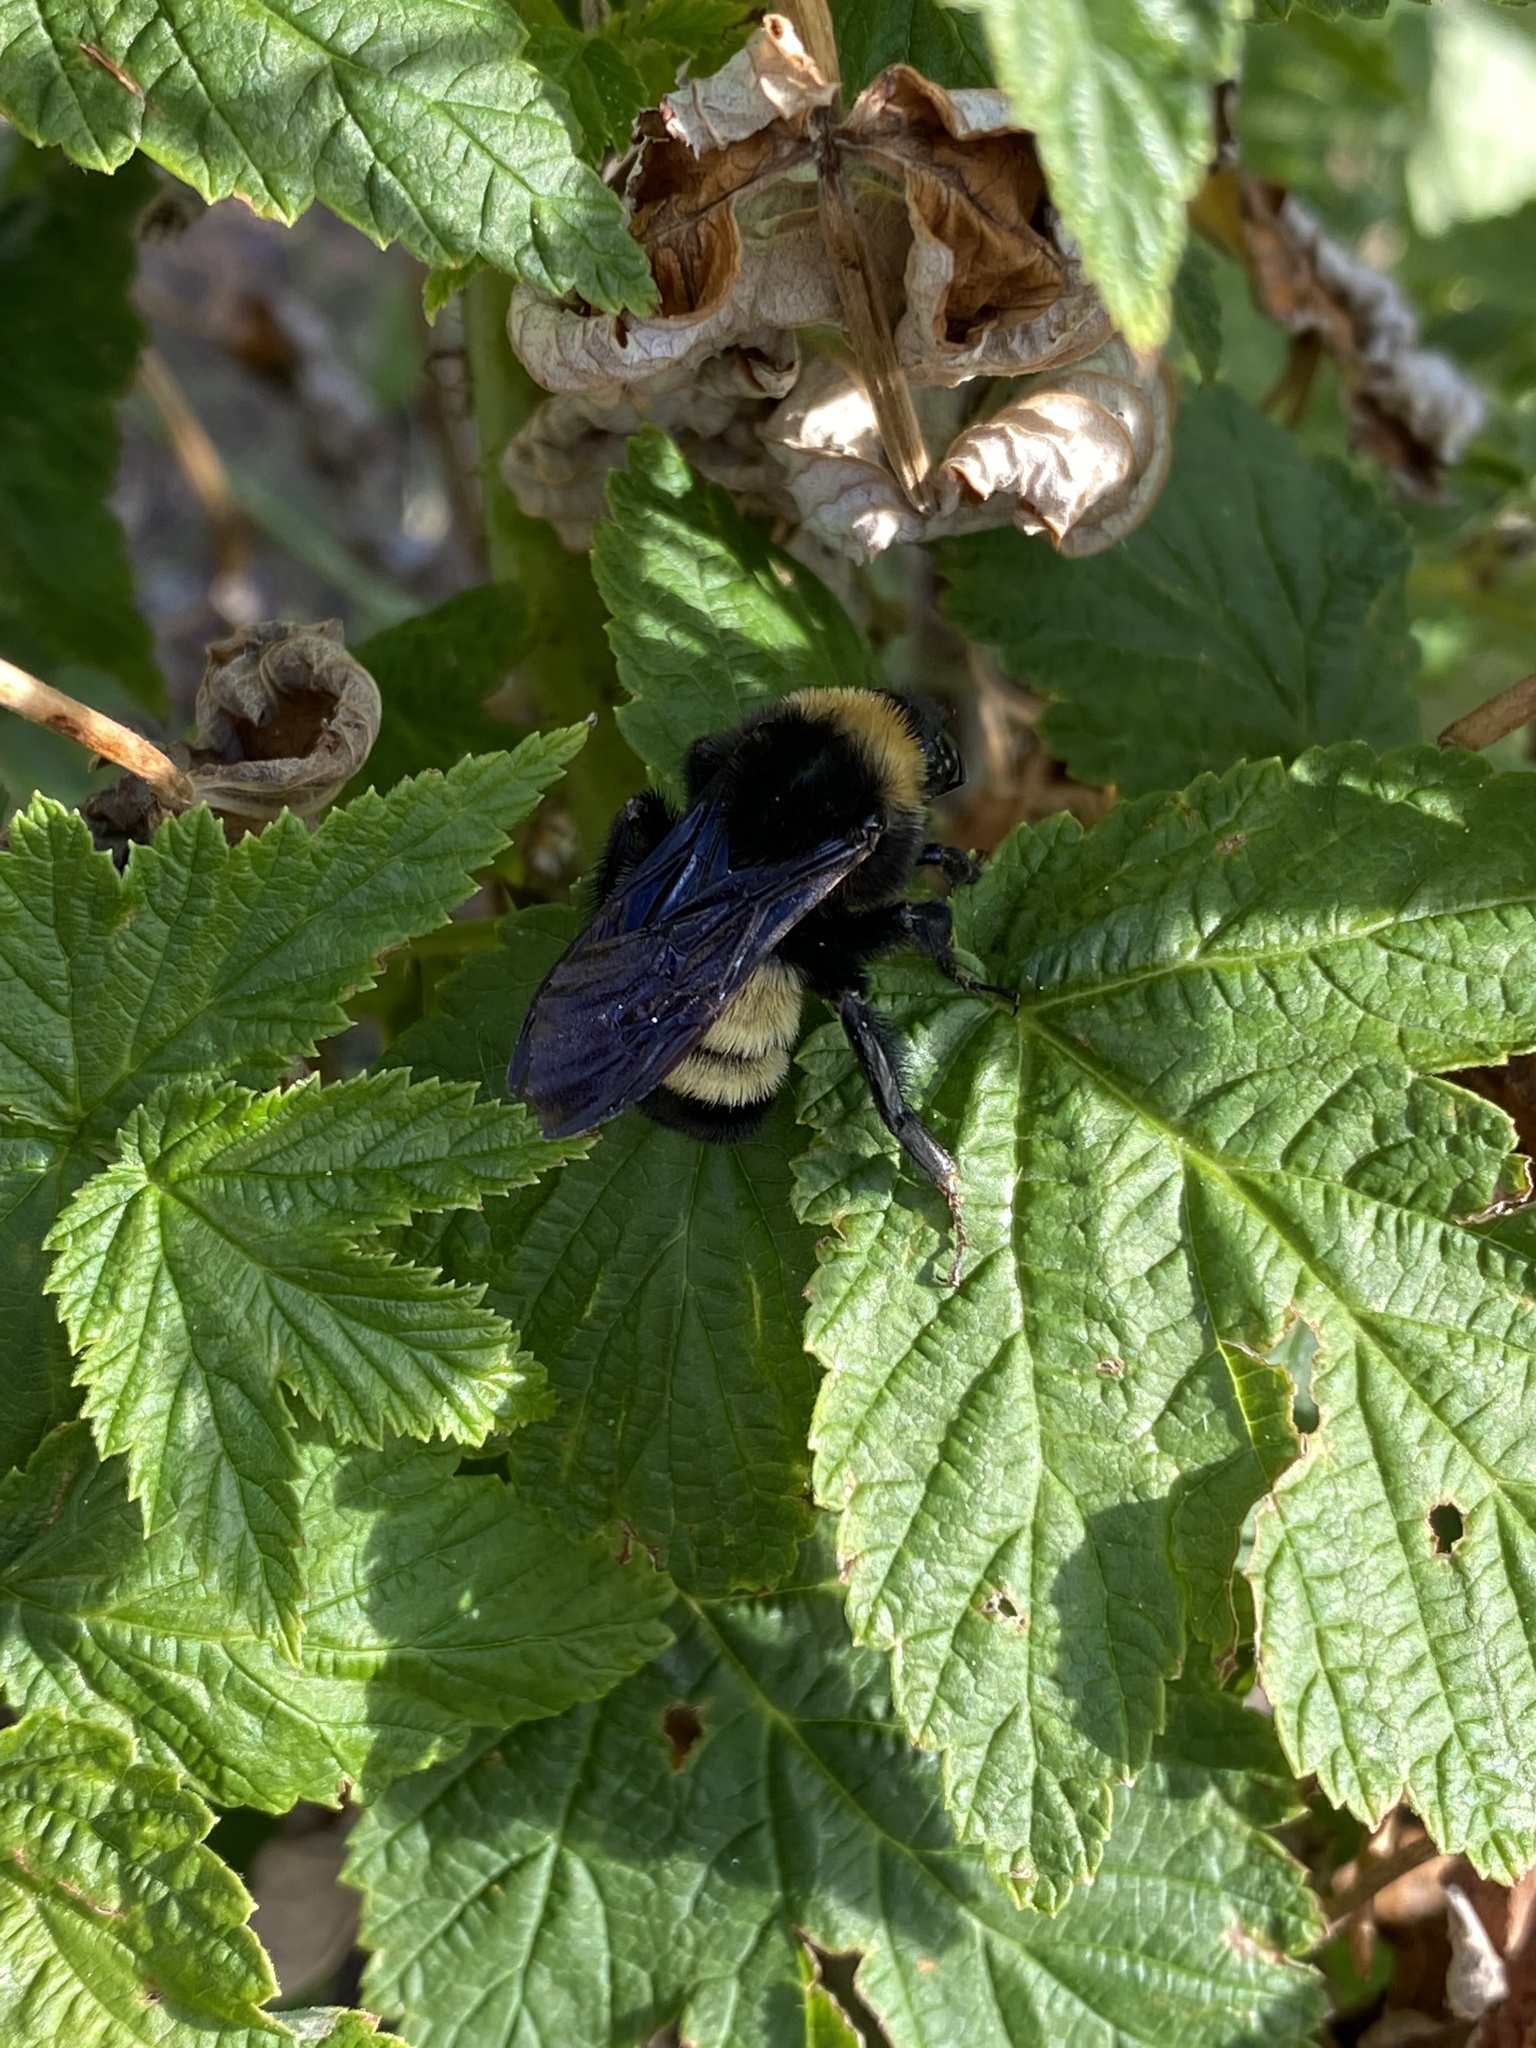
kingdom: Animalia
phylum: Arthropoda
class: Insecta
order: Hymenoptera
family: Apidae
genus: Bombus
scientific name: Bombus pensylvanicus
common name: Bumble bee
